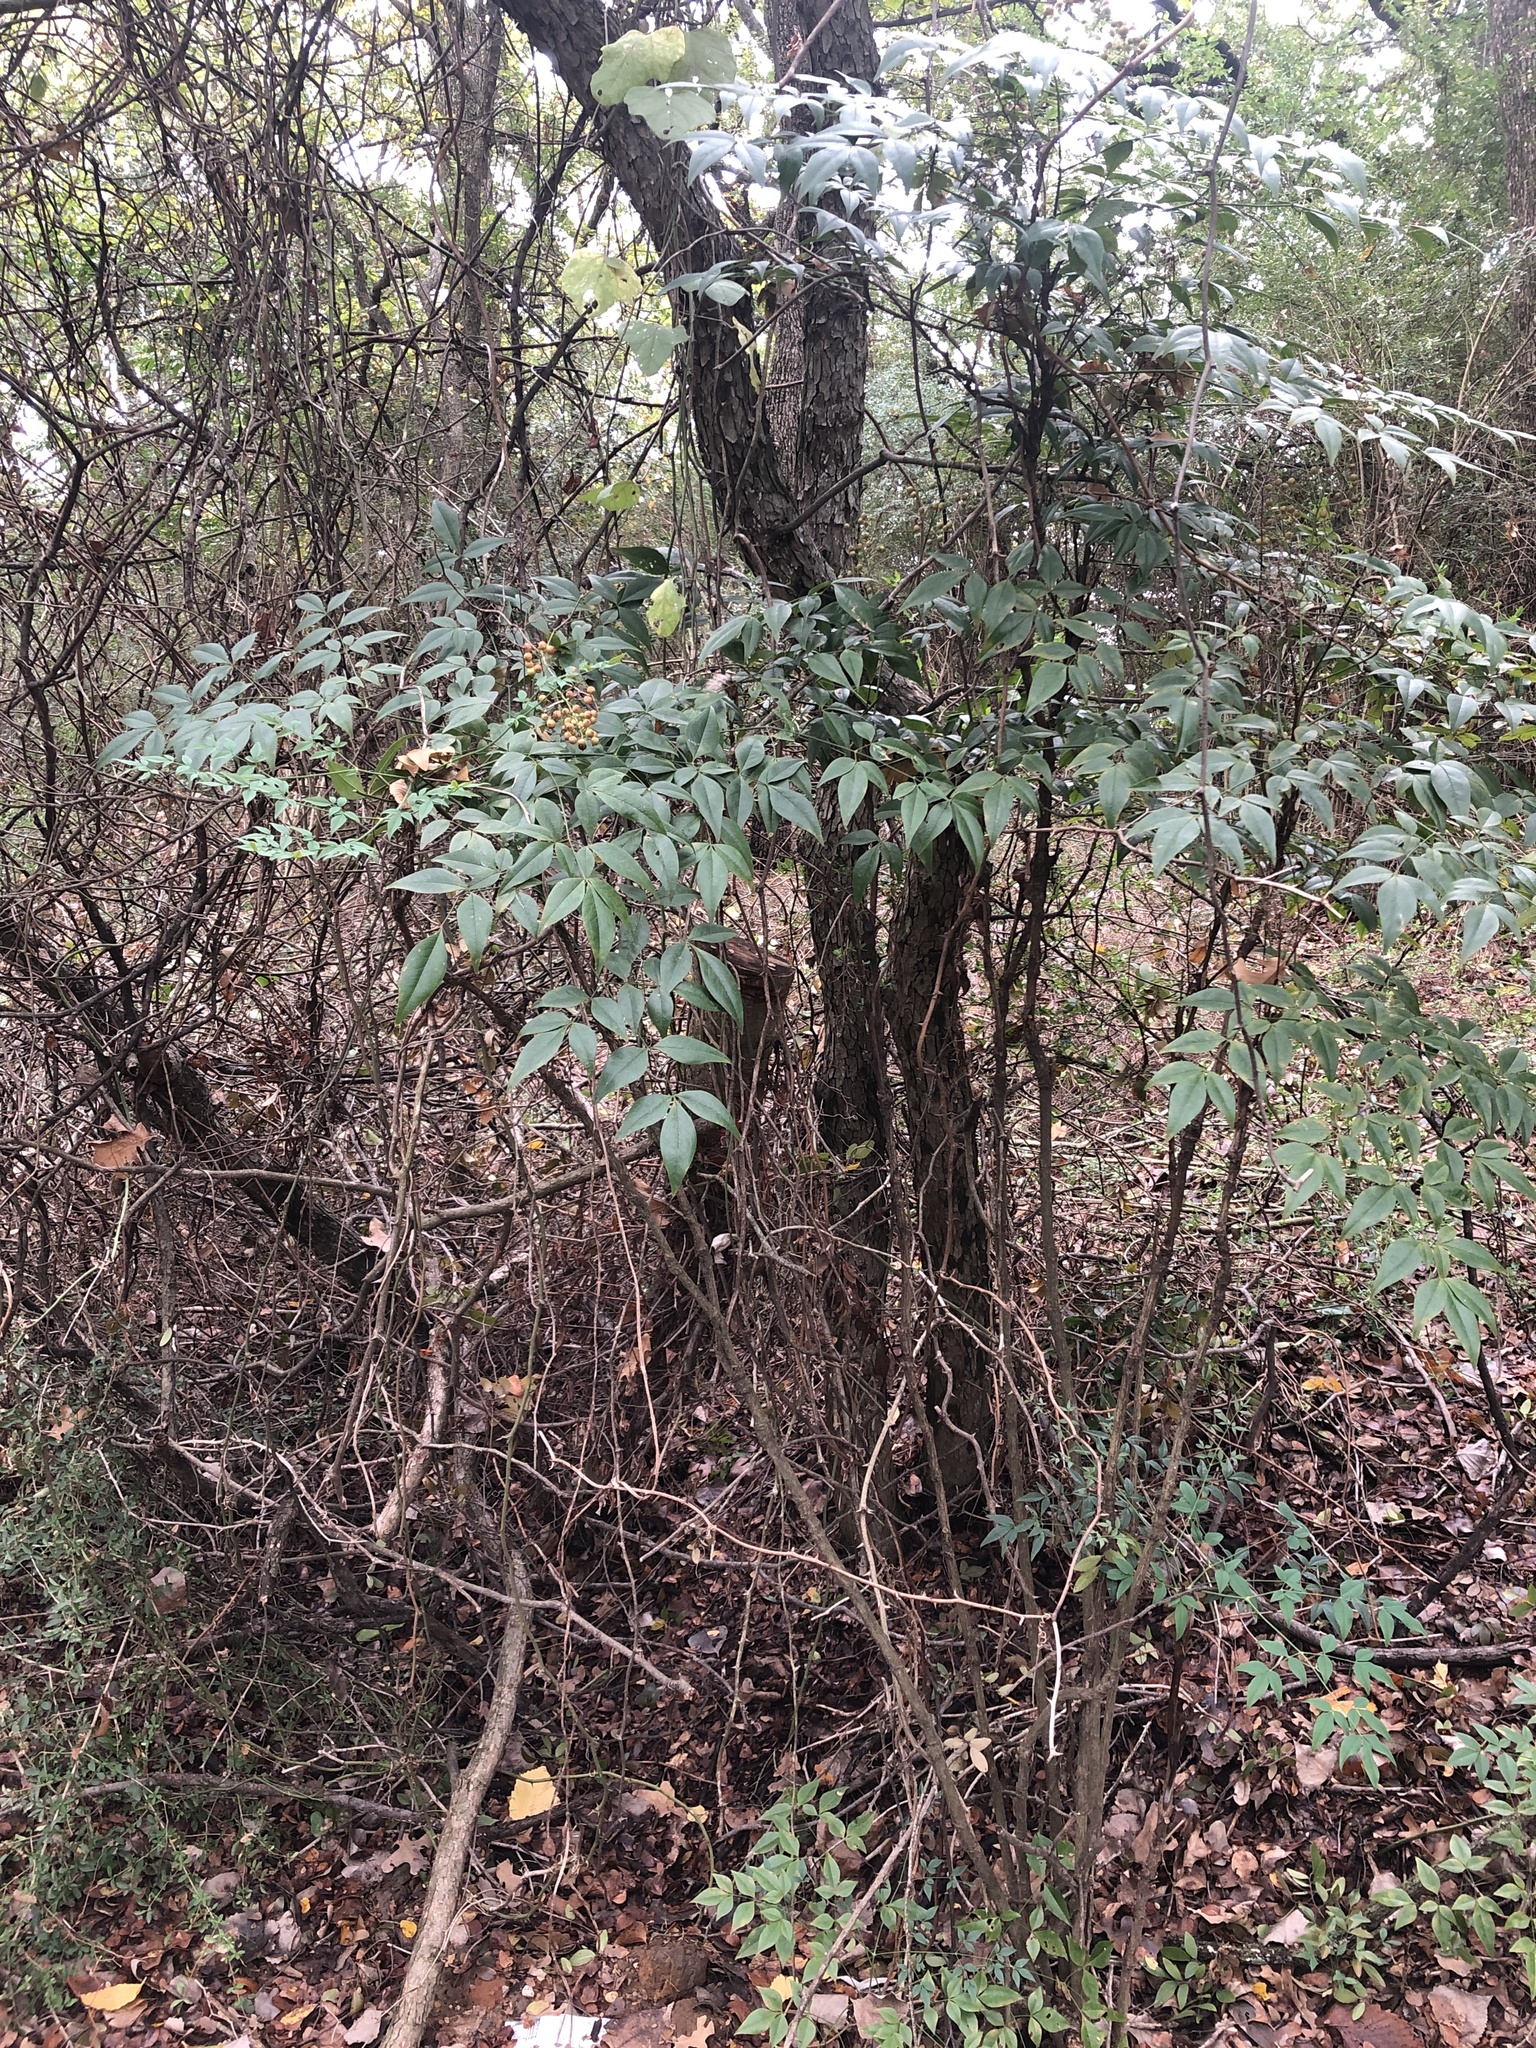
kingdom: Plantae
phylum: Tracheophyta
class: Magnoliopsida
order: Ranunculales
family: Berberidaceae
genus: Nandina
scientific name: Nandina domestica
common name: Sacred bamboo
